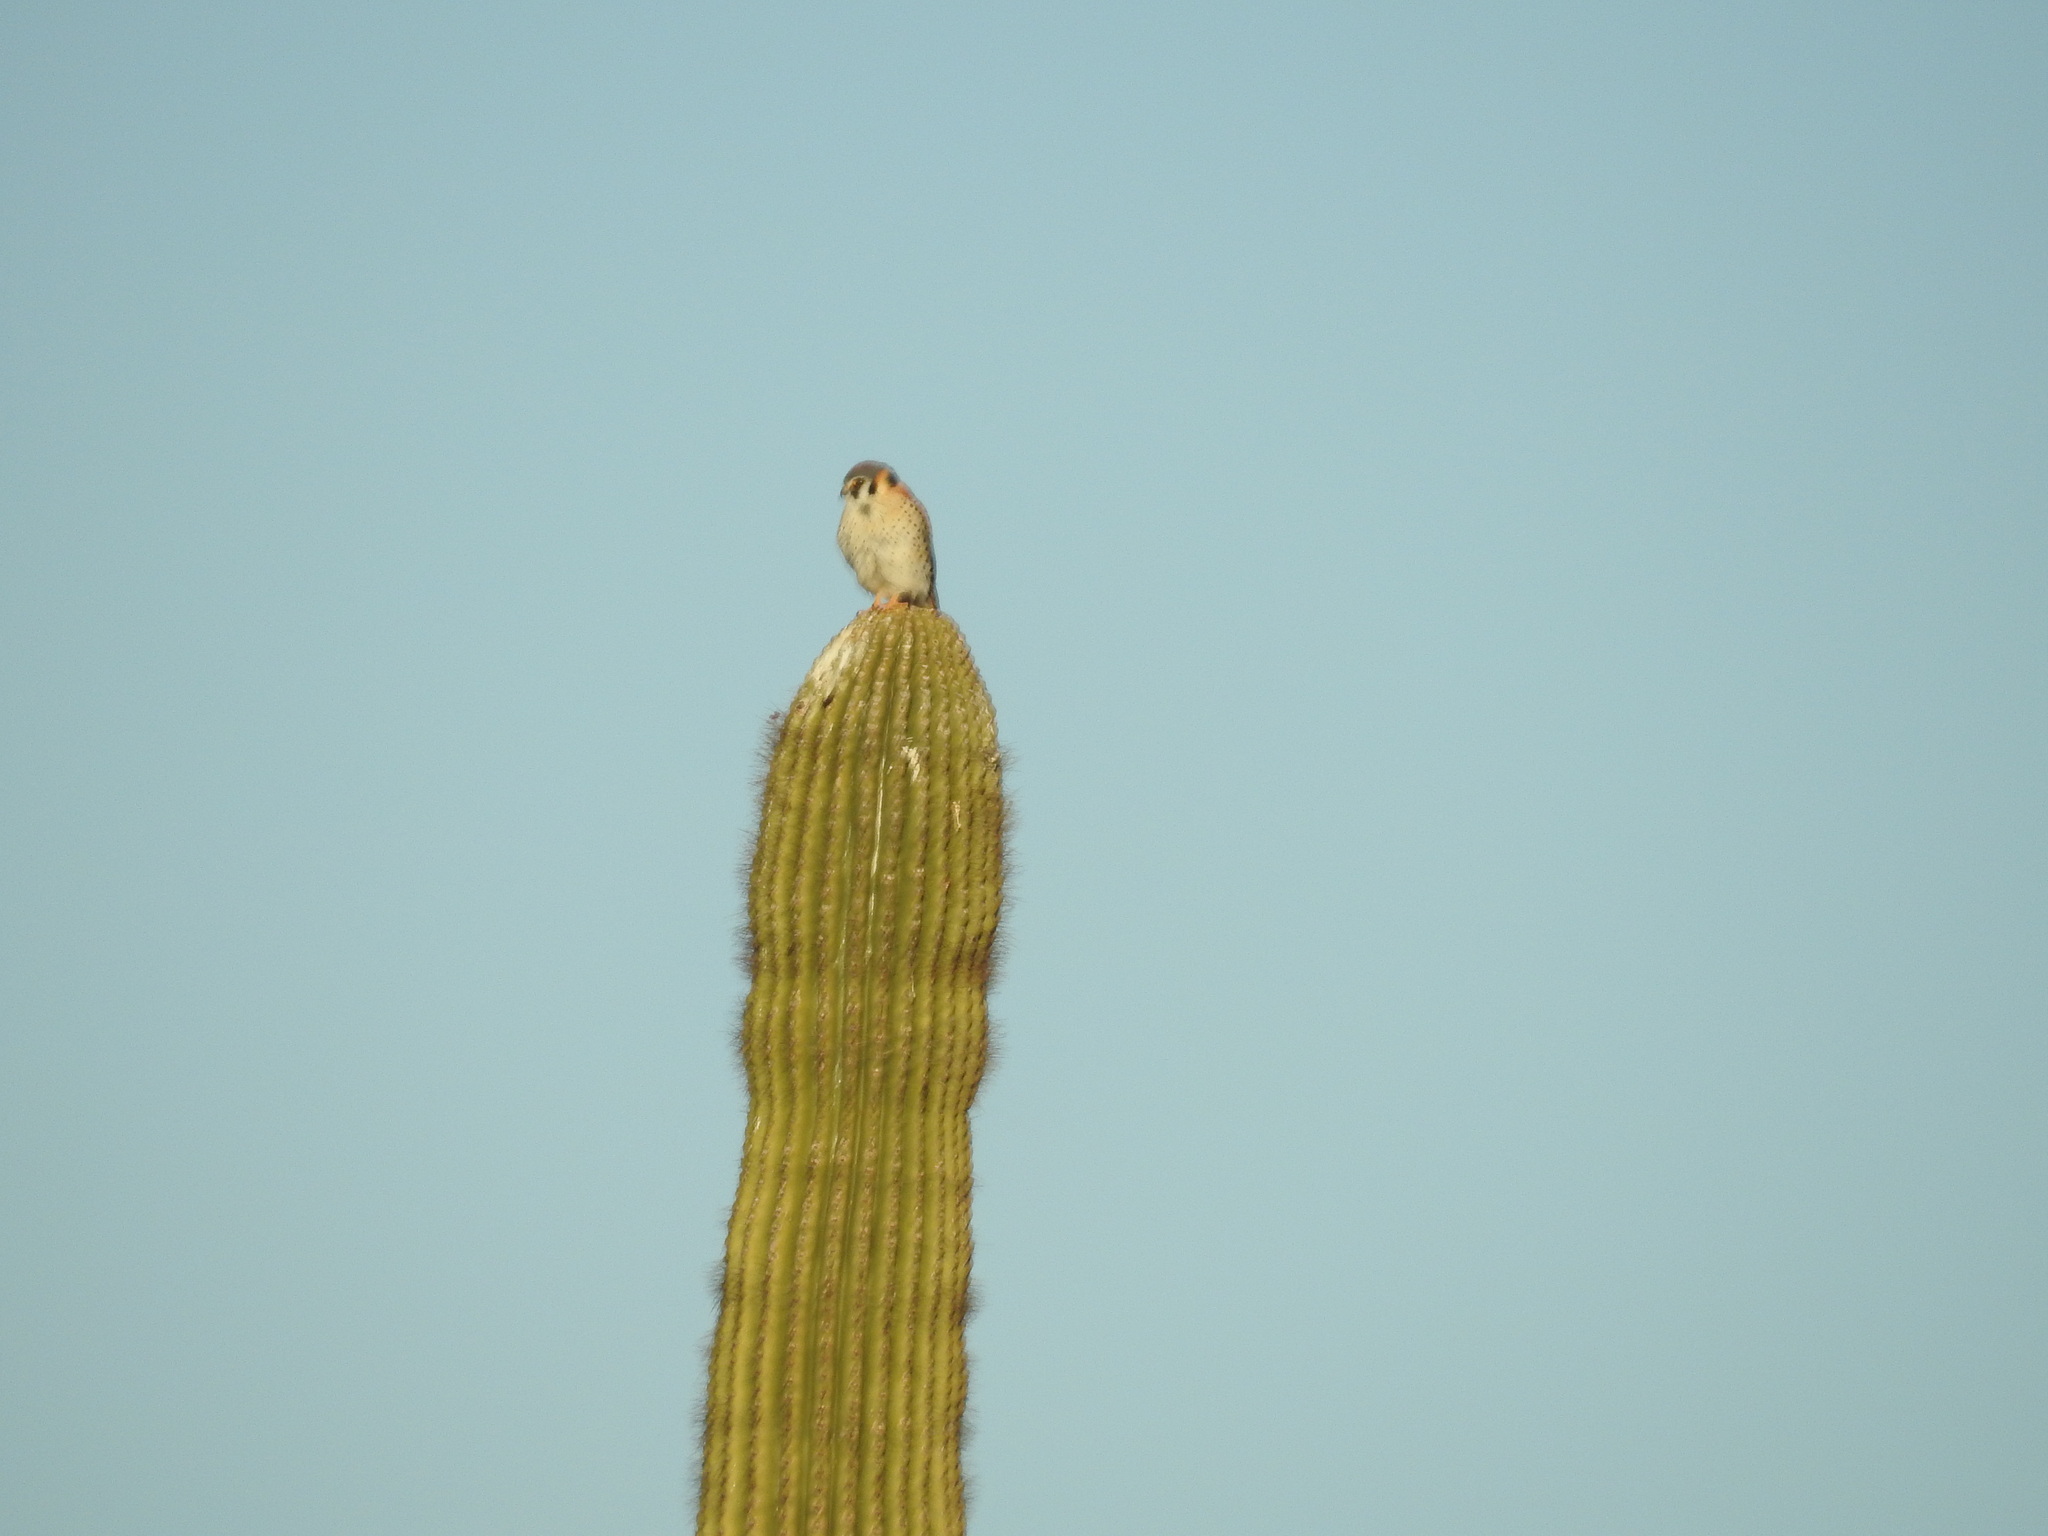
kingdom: Animalia
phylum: Chordata
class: Aves
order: Falconiformes
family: Falconidae
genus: Falco
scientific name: Falco sparverius
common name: American kestrel
